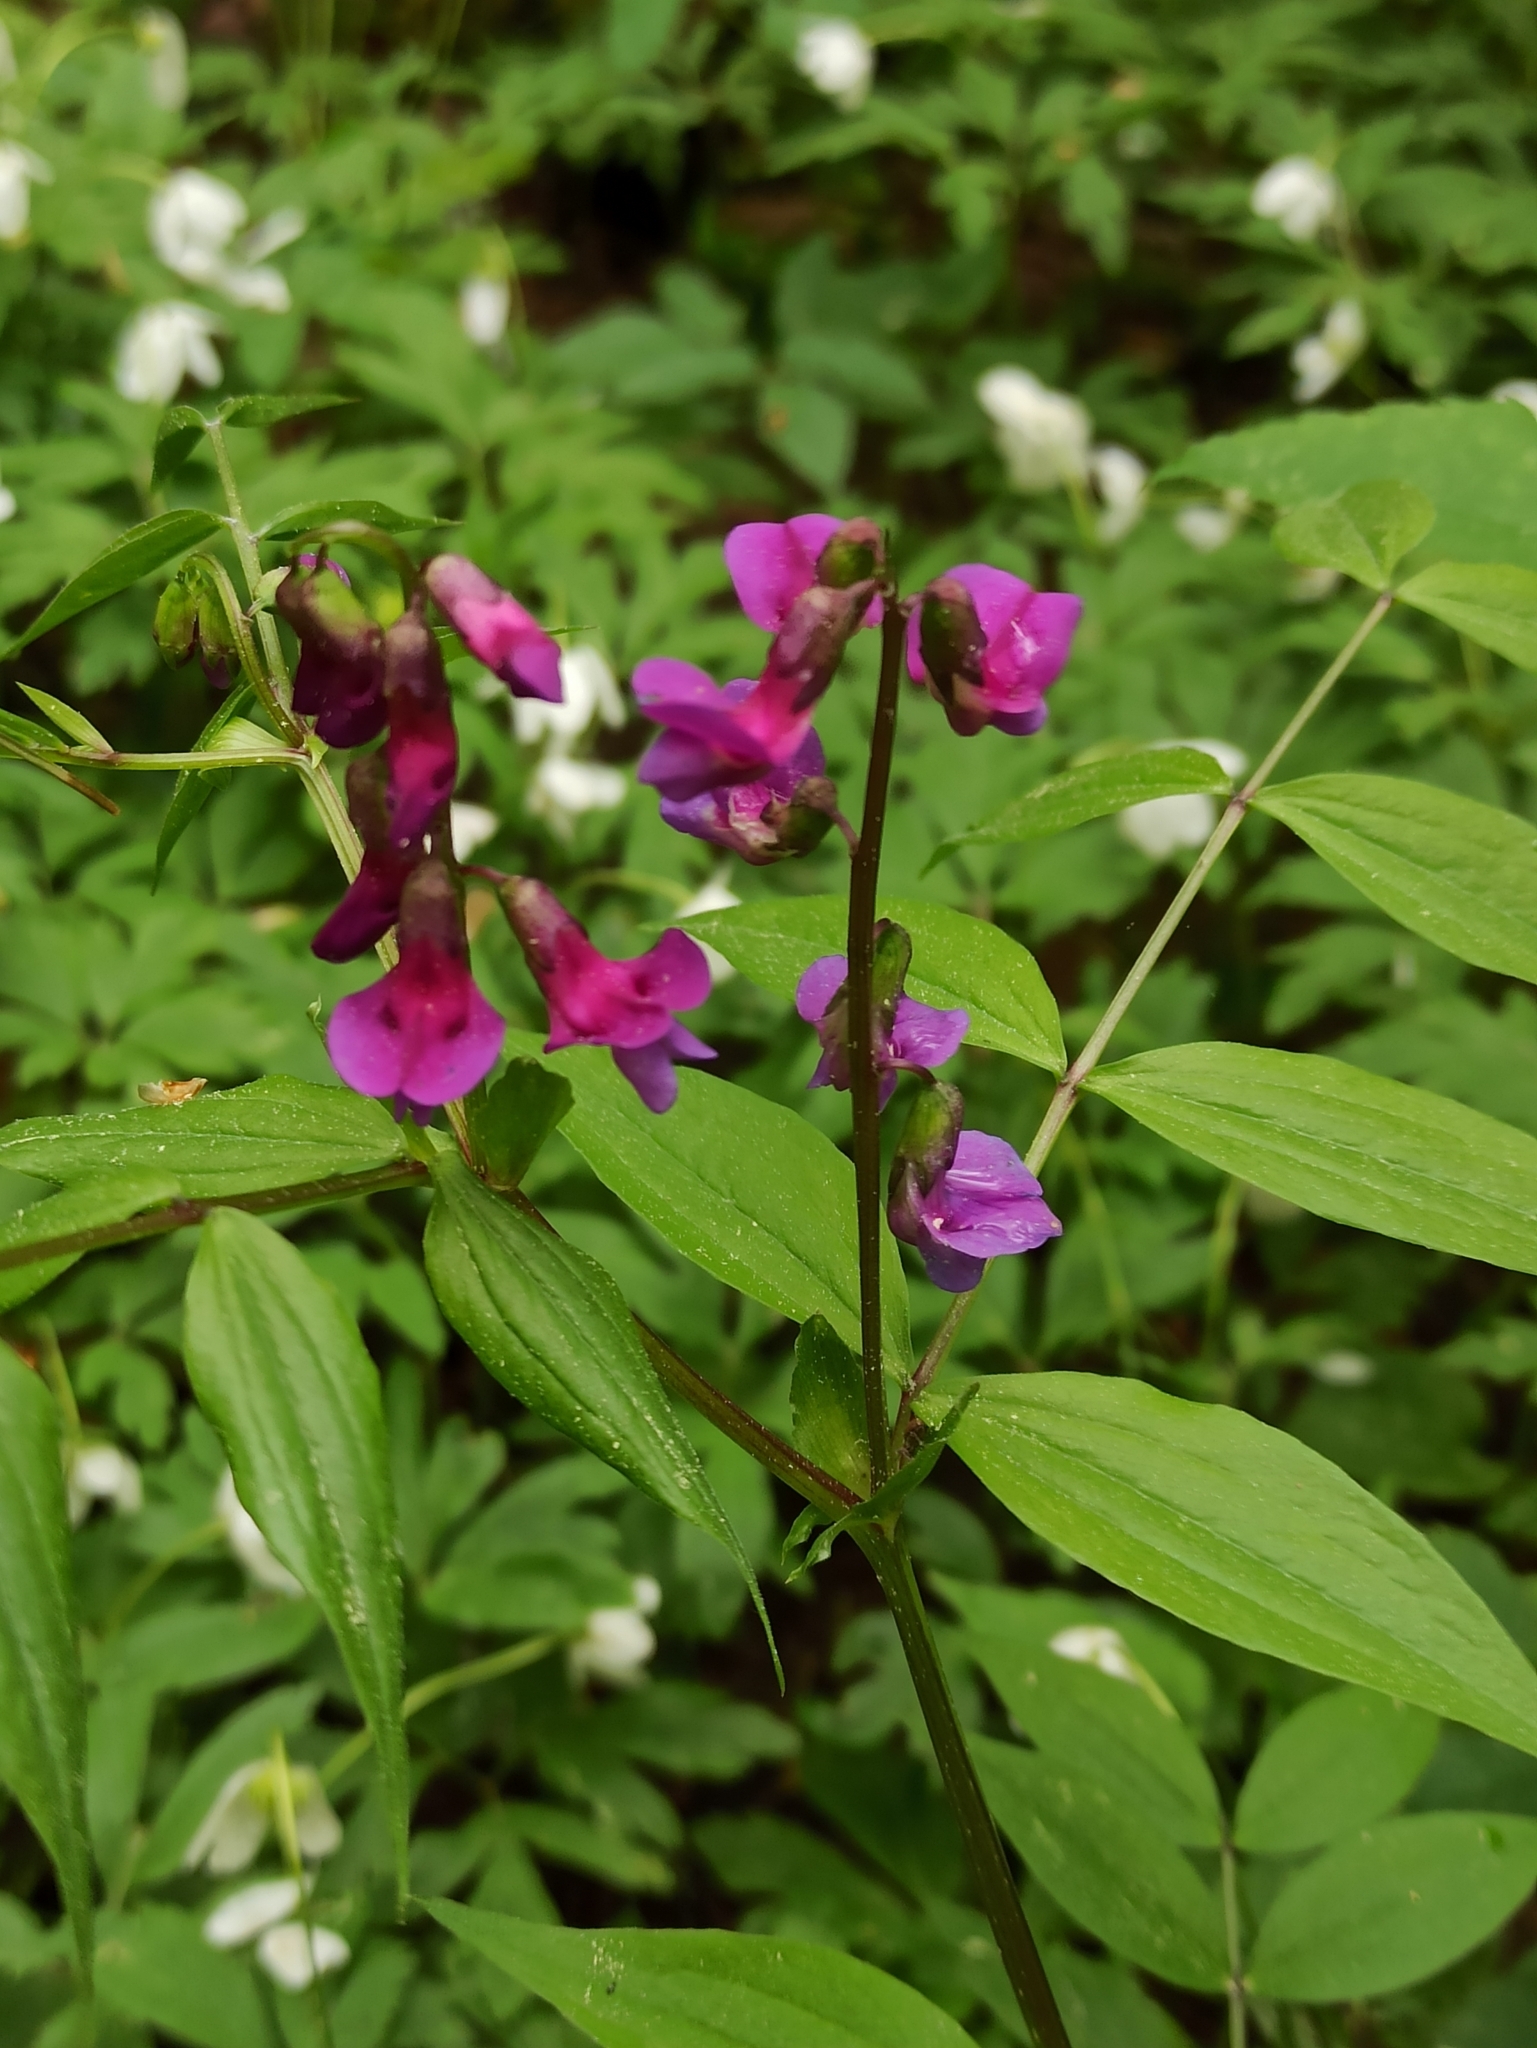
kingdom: Plantae
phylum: Tracheophyta
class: Magnoliopsida
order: Fabales
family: Fabaceae
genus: Lathyrus
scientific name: Lathyrus vernus
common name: Spring pea
